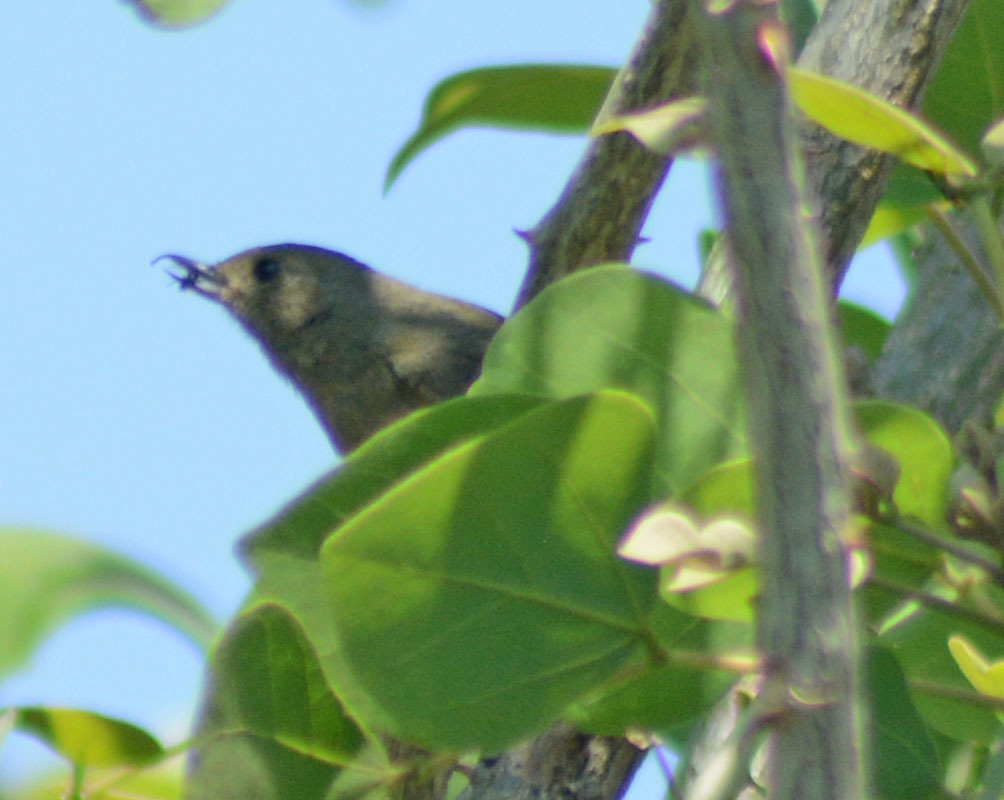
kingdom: Animalia
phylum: Chordata
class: Aves
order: Passeriformes
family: Thraupidae
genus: Diglossa
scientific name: Diglossa baritula
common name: Cinnamon-bellied flowerpiercer
